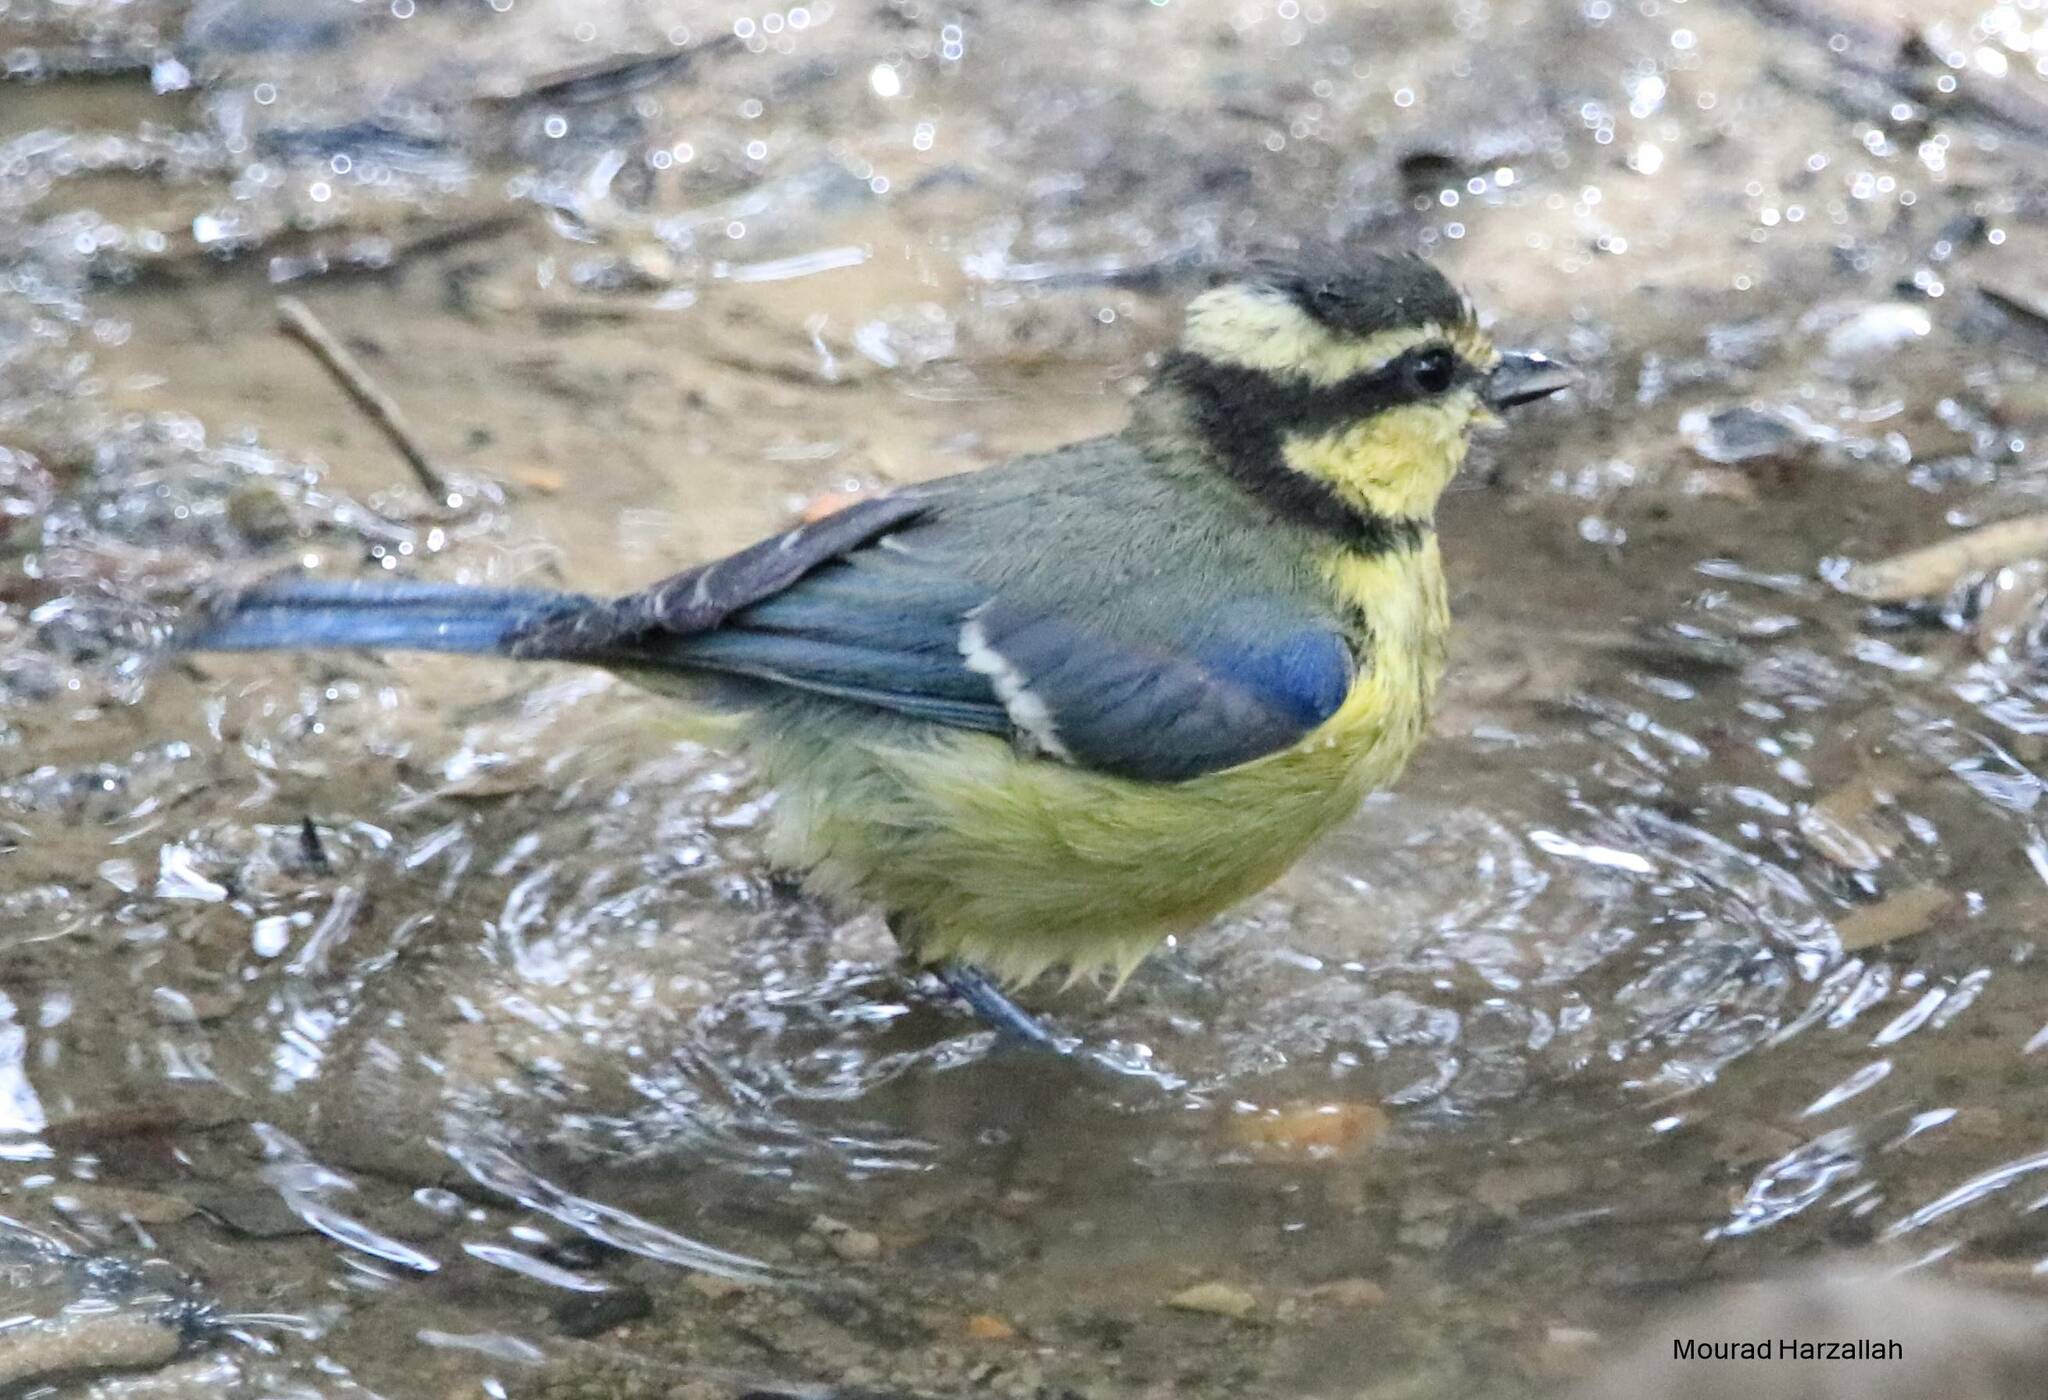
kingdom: Animalia
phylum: Chordata
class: Aves
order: Passeriformes
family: Paridae
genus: Cyanistes
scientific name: Cyanistes teneriffae
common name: African blue tit
